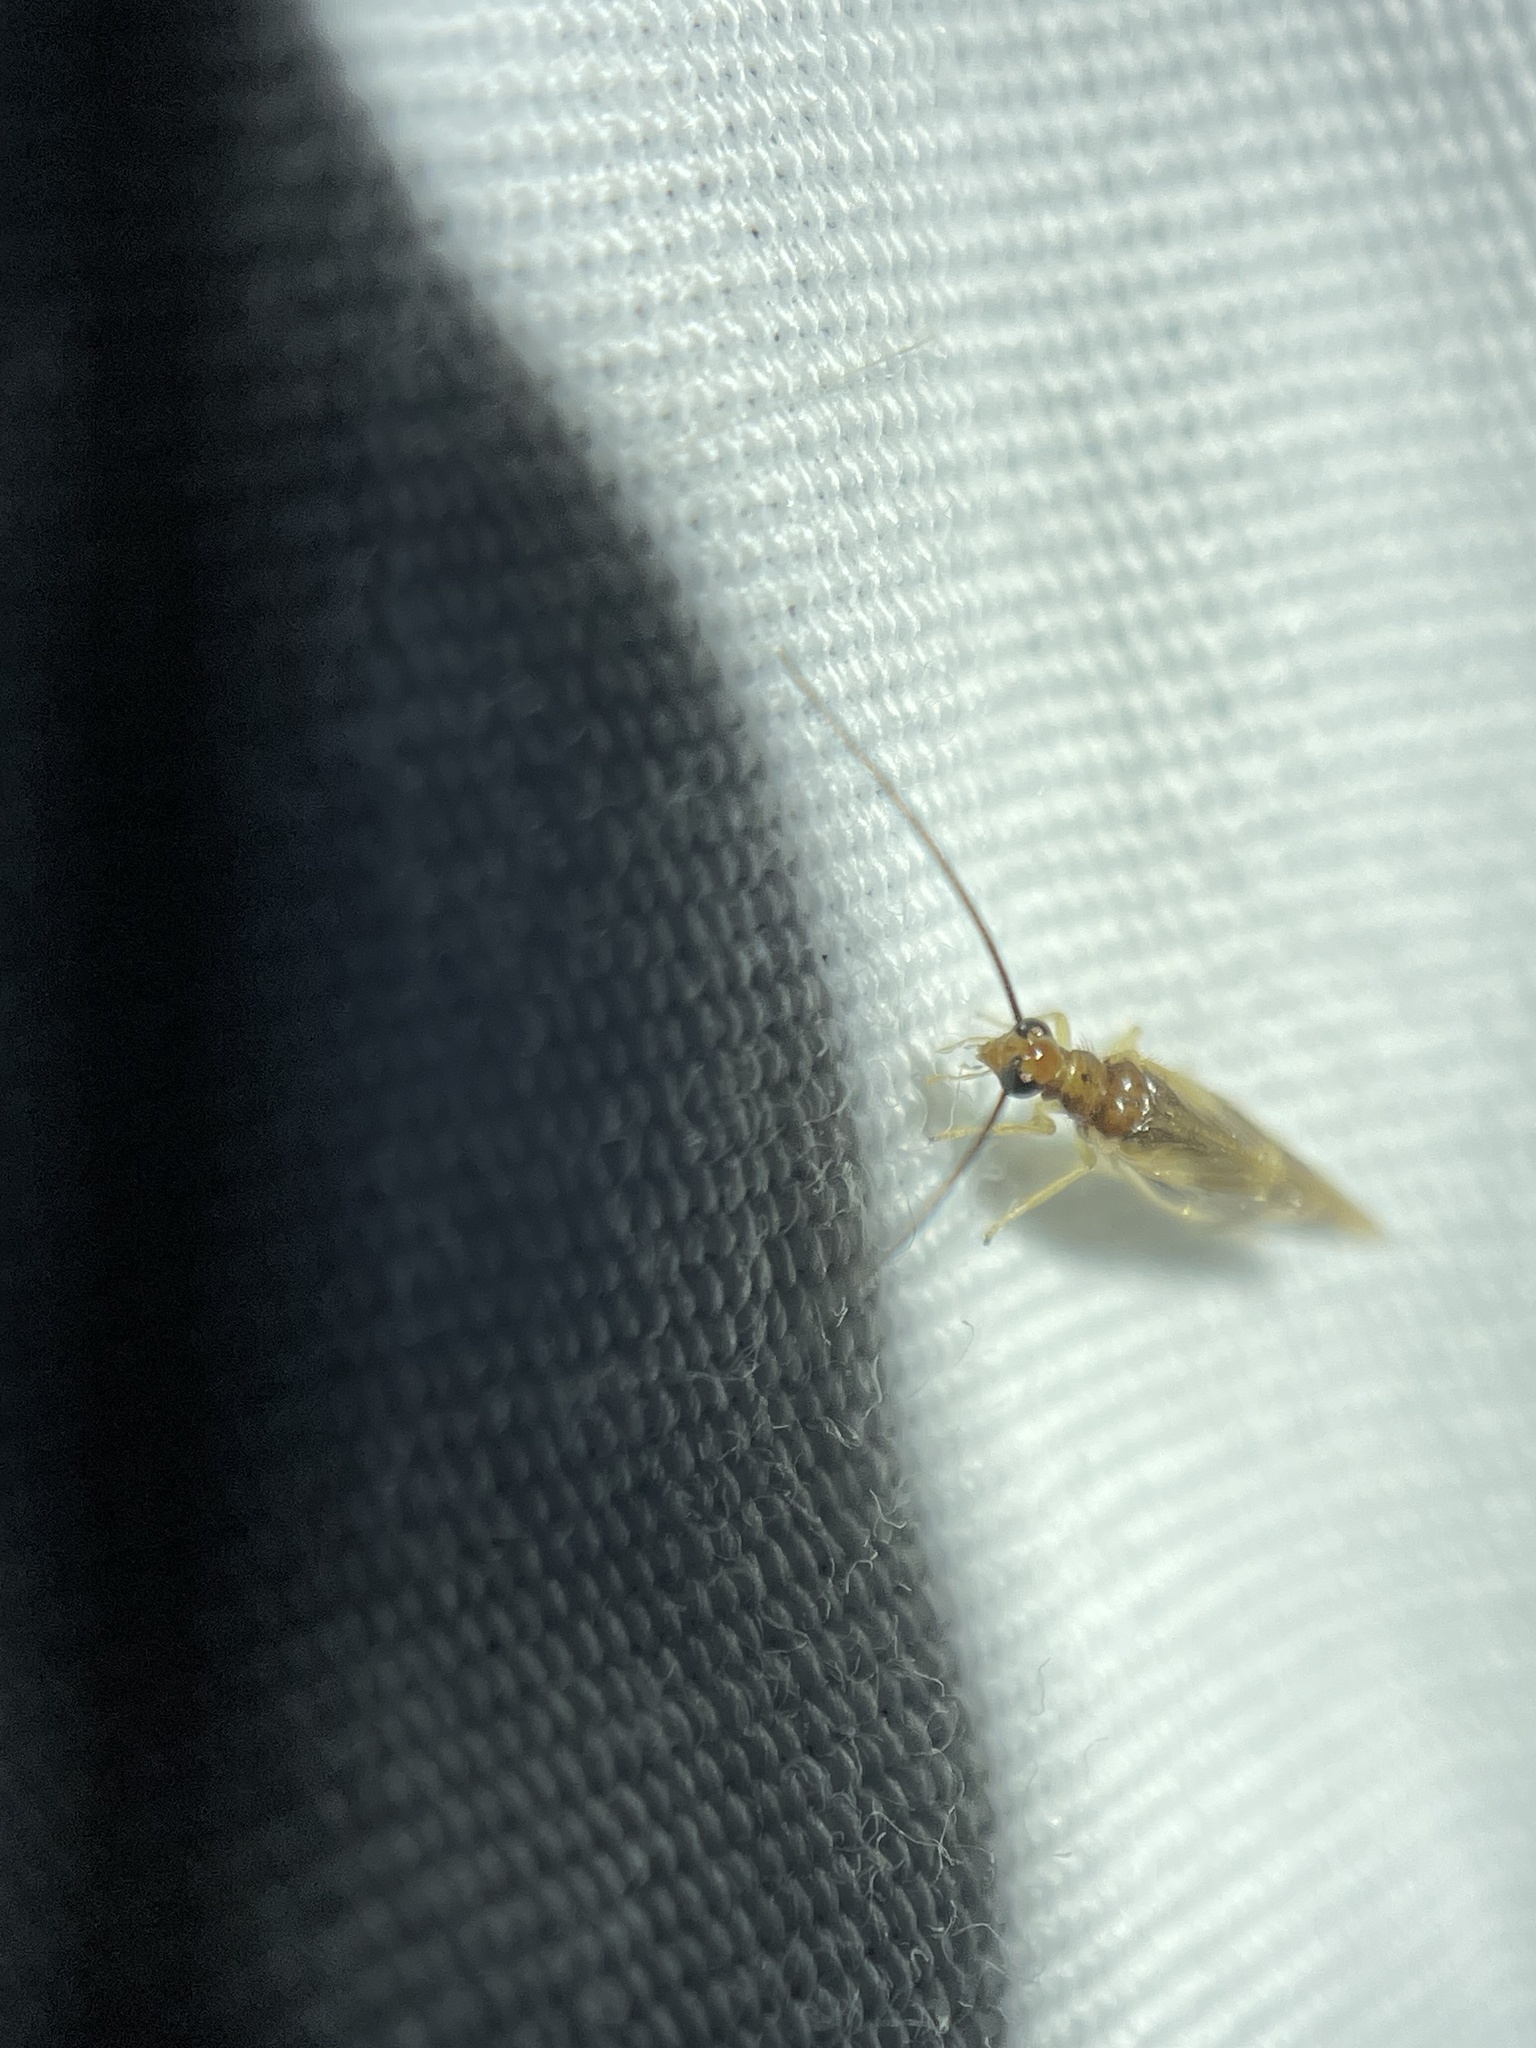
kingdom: Animalia
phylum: Arthropoda
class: Insecta
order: Neuroptera
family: Sisyridae
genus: Climacia
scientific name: Climacia areolaris
